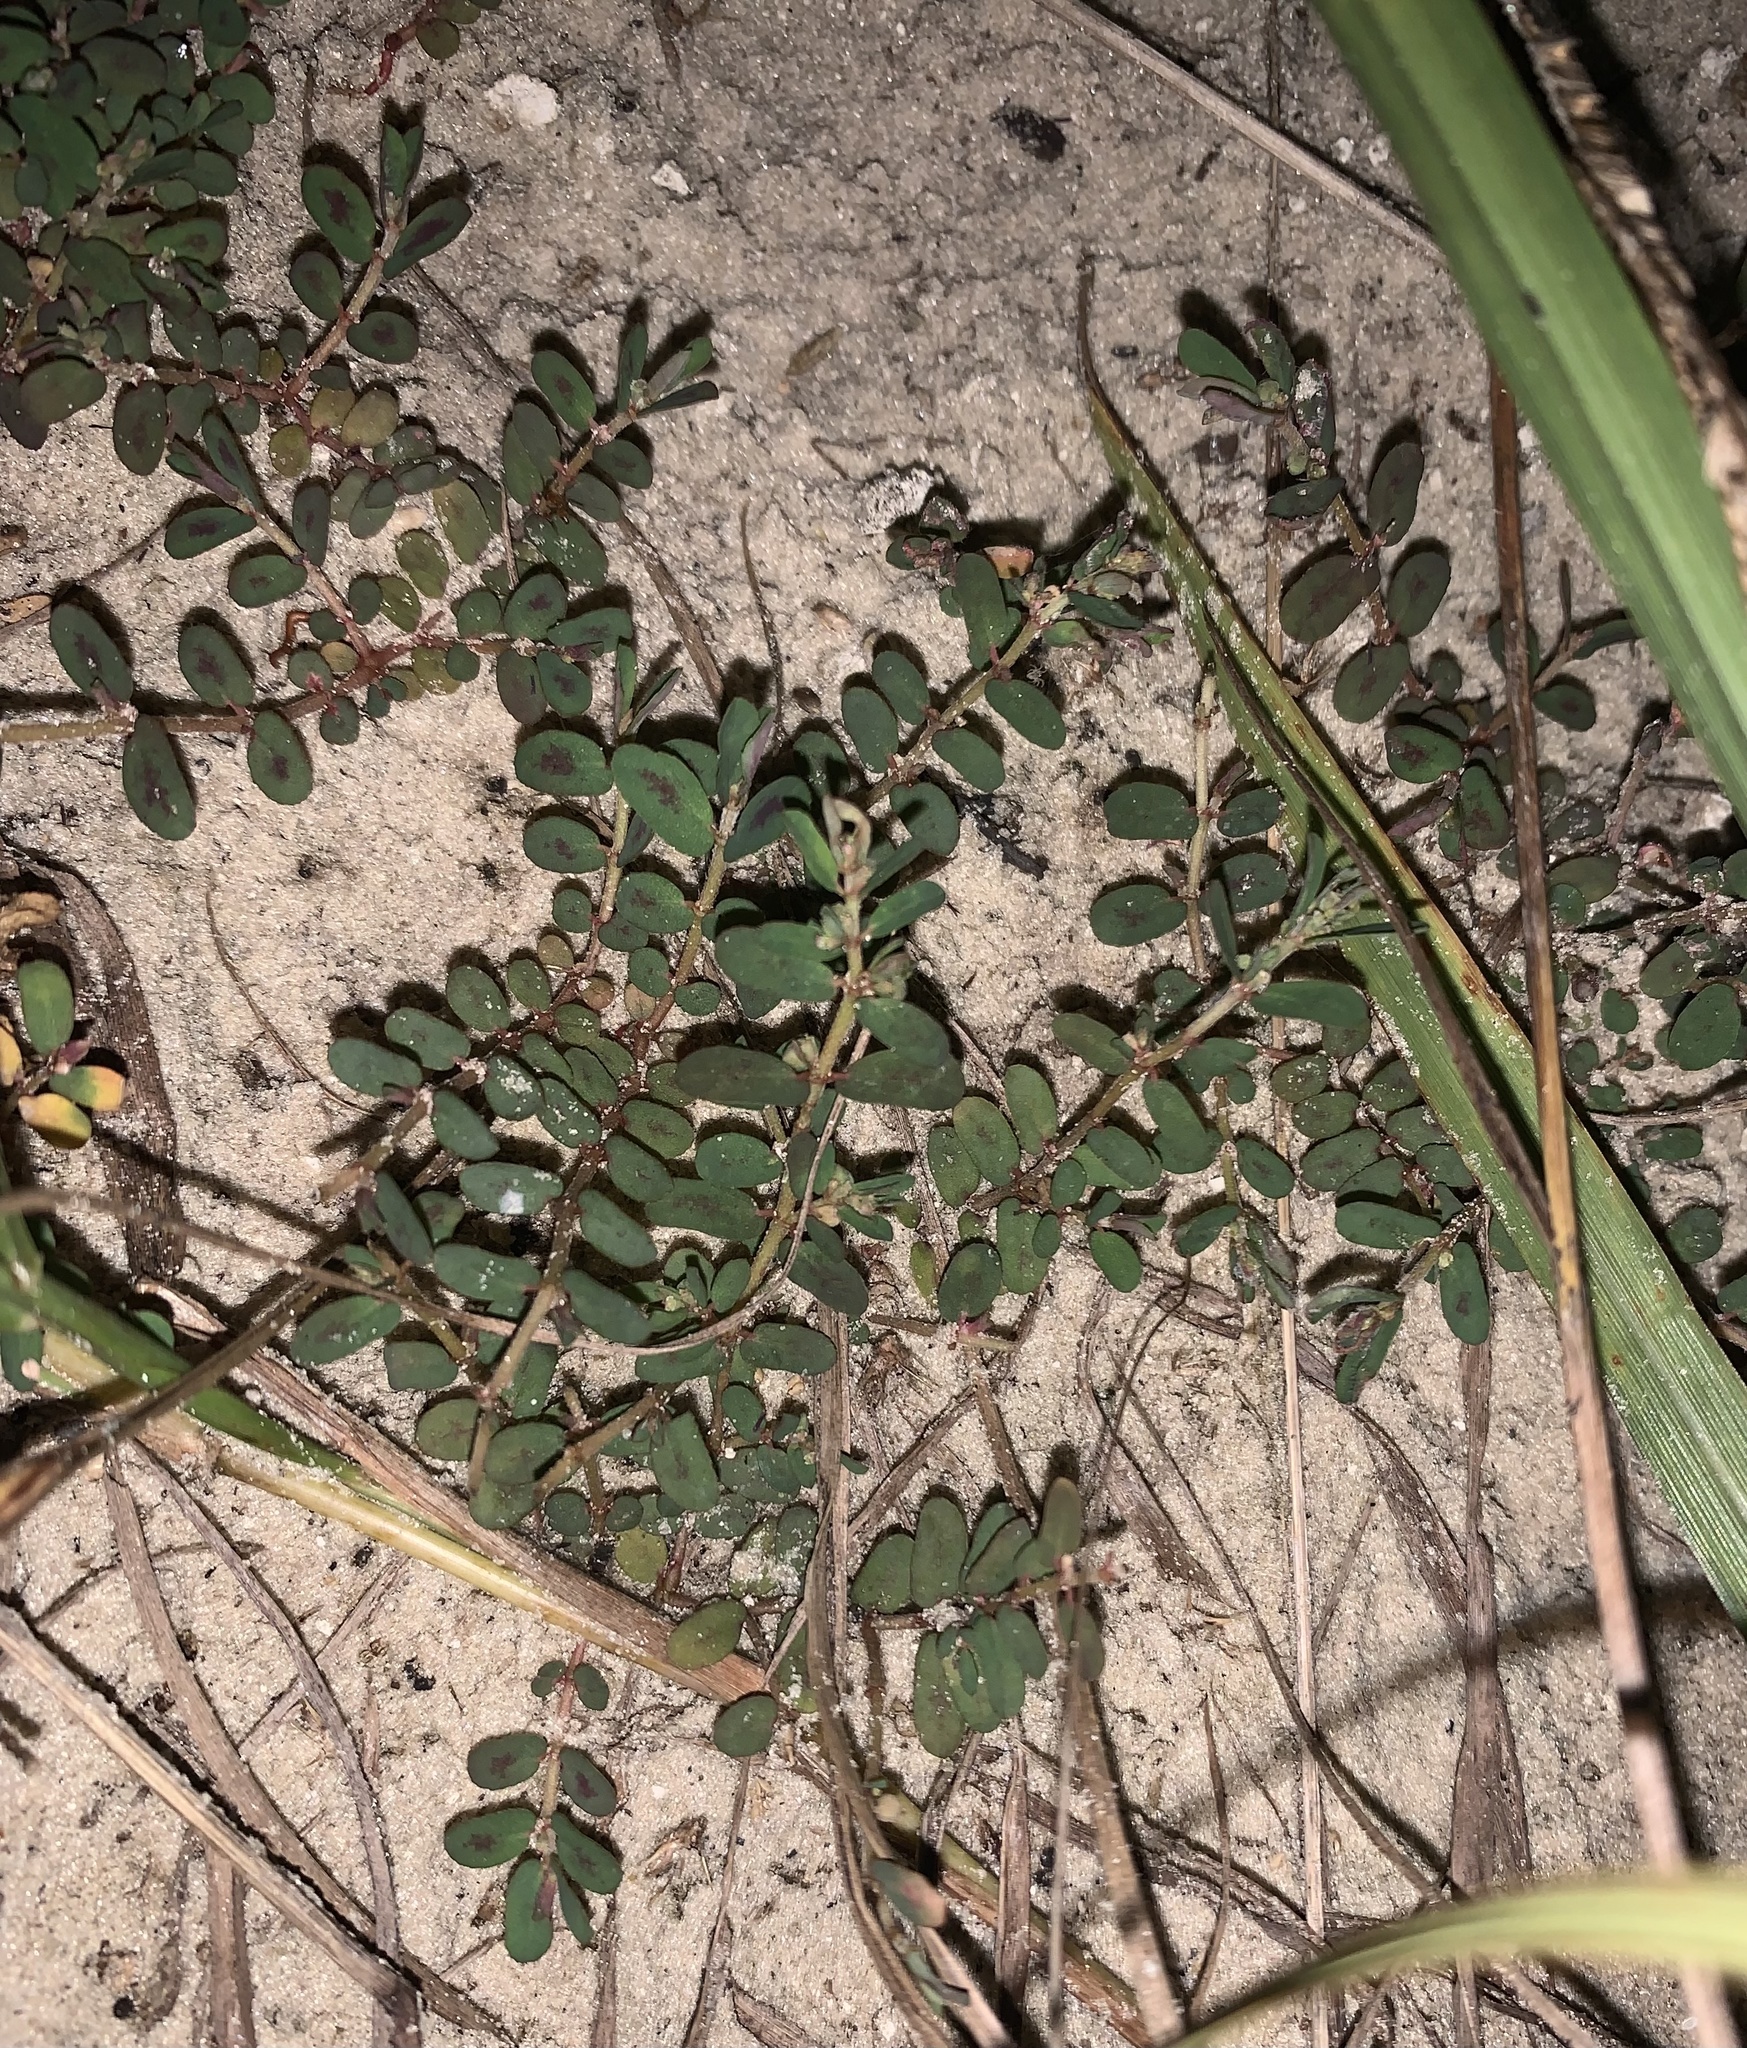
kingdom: Plantae
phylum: Tracheophyta
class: Magnoliopsida
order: Malpighiales
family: Euphorbiaceae
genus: Euphorbia
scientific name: Euphorbia maculata
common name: Spotted spurge
